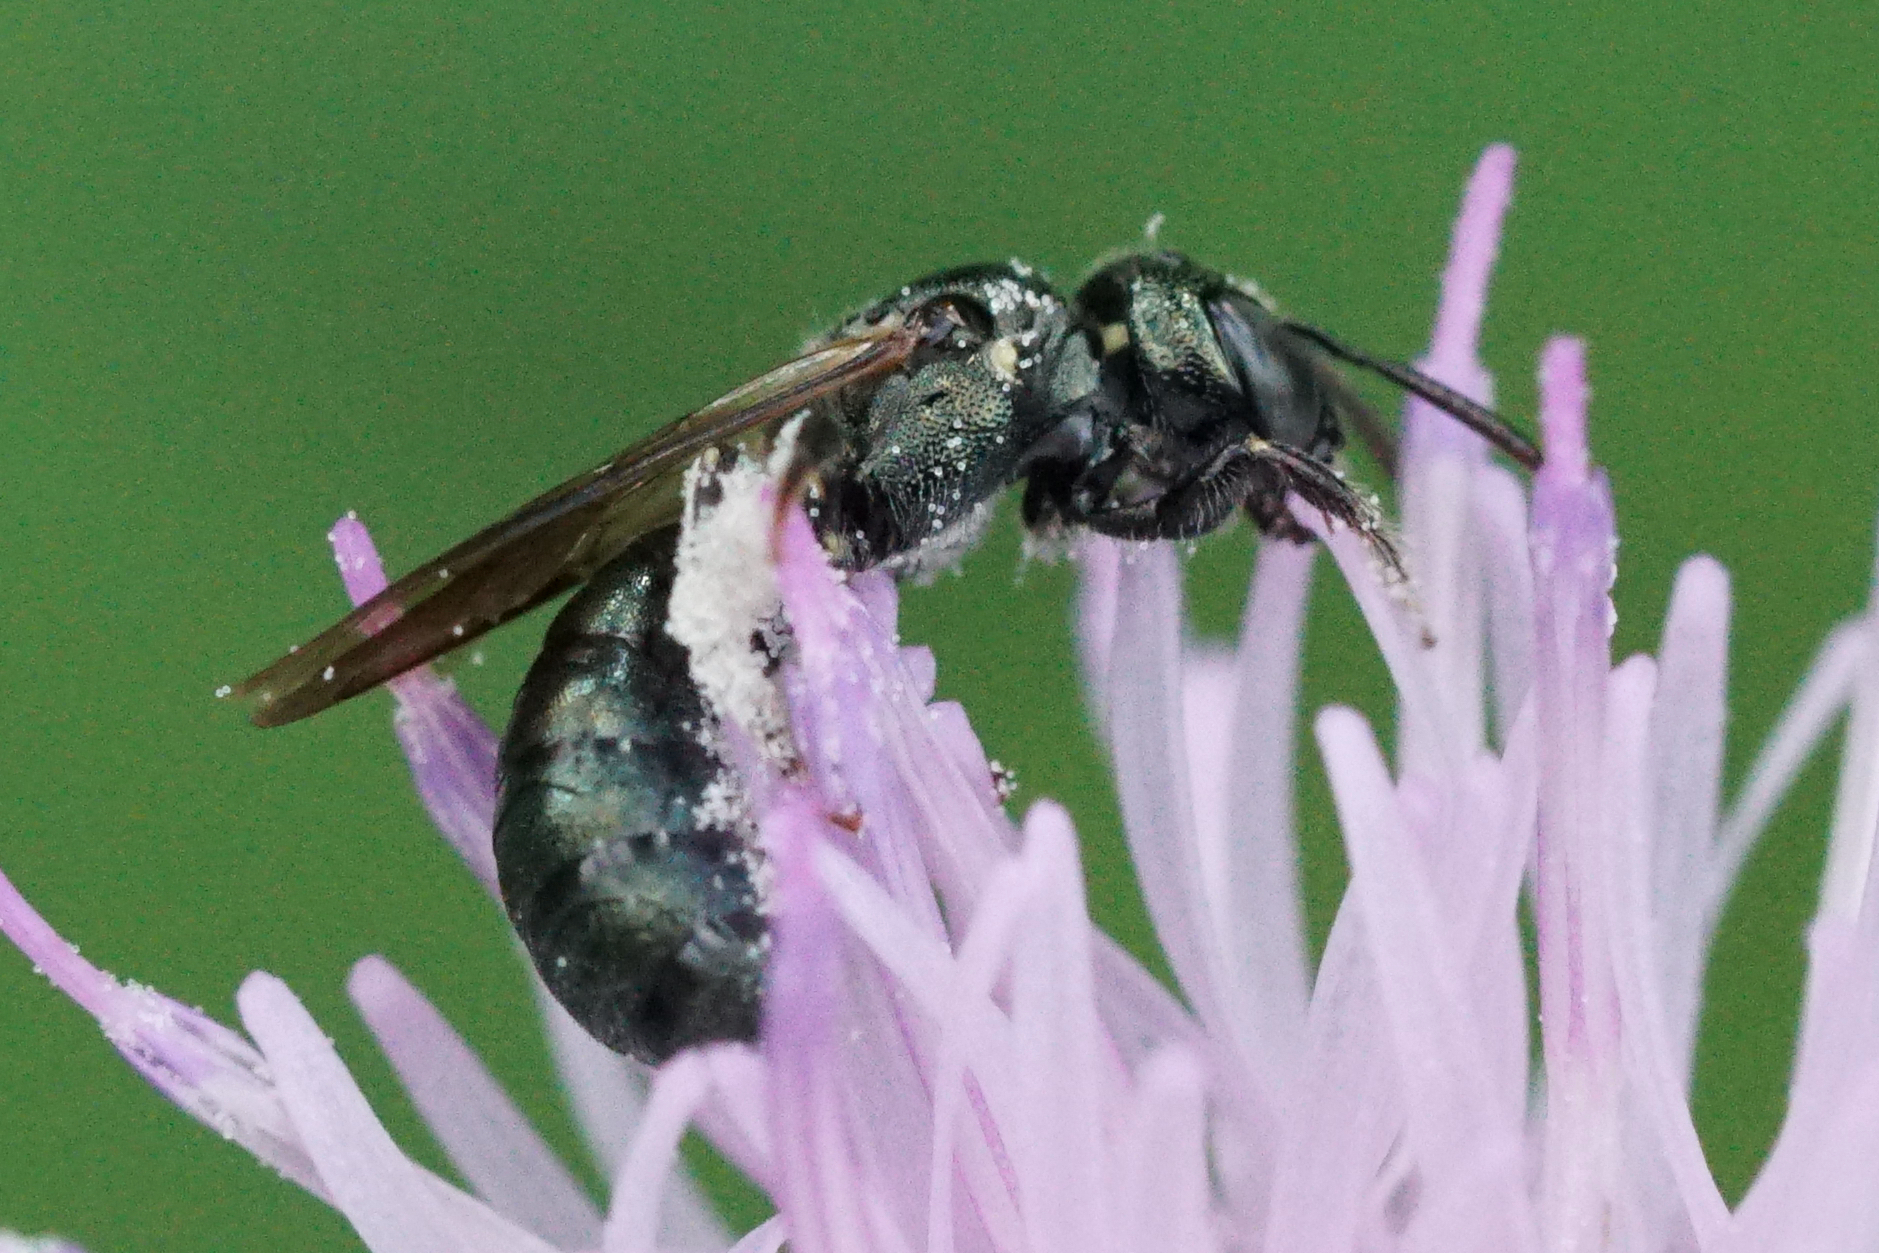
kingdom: Animalia
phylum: Arthropoda
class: Insecta
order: Hymenoptera
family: Apidae
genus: Zadontomerus
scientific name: Zadontomerus
